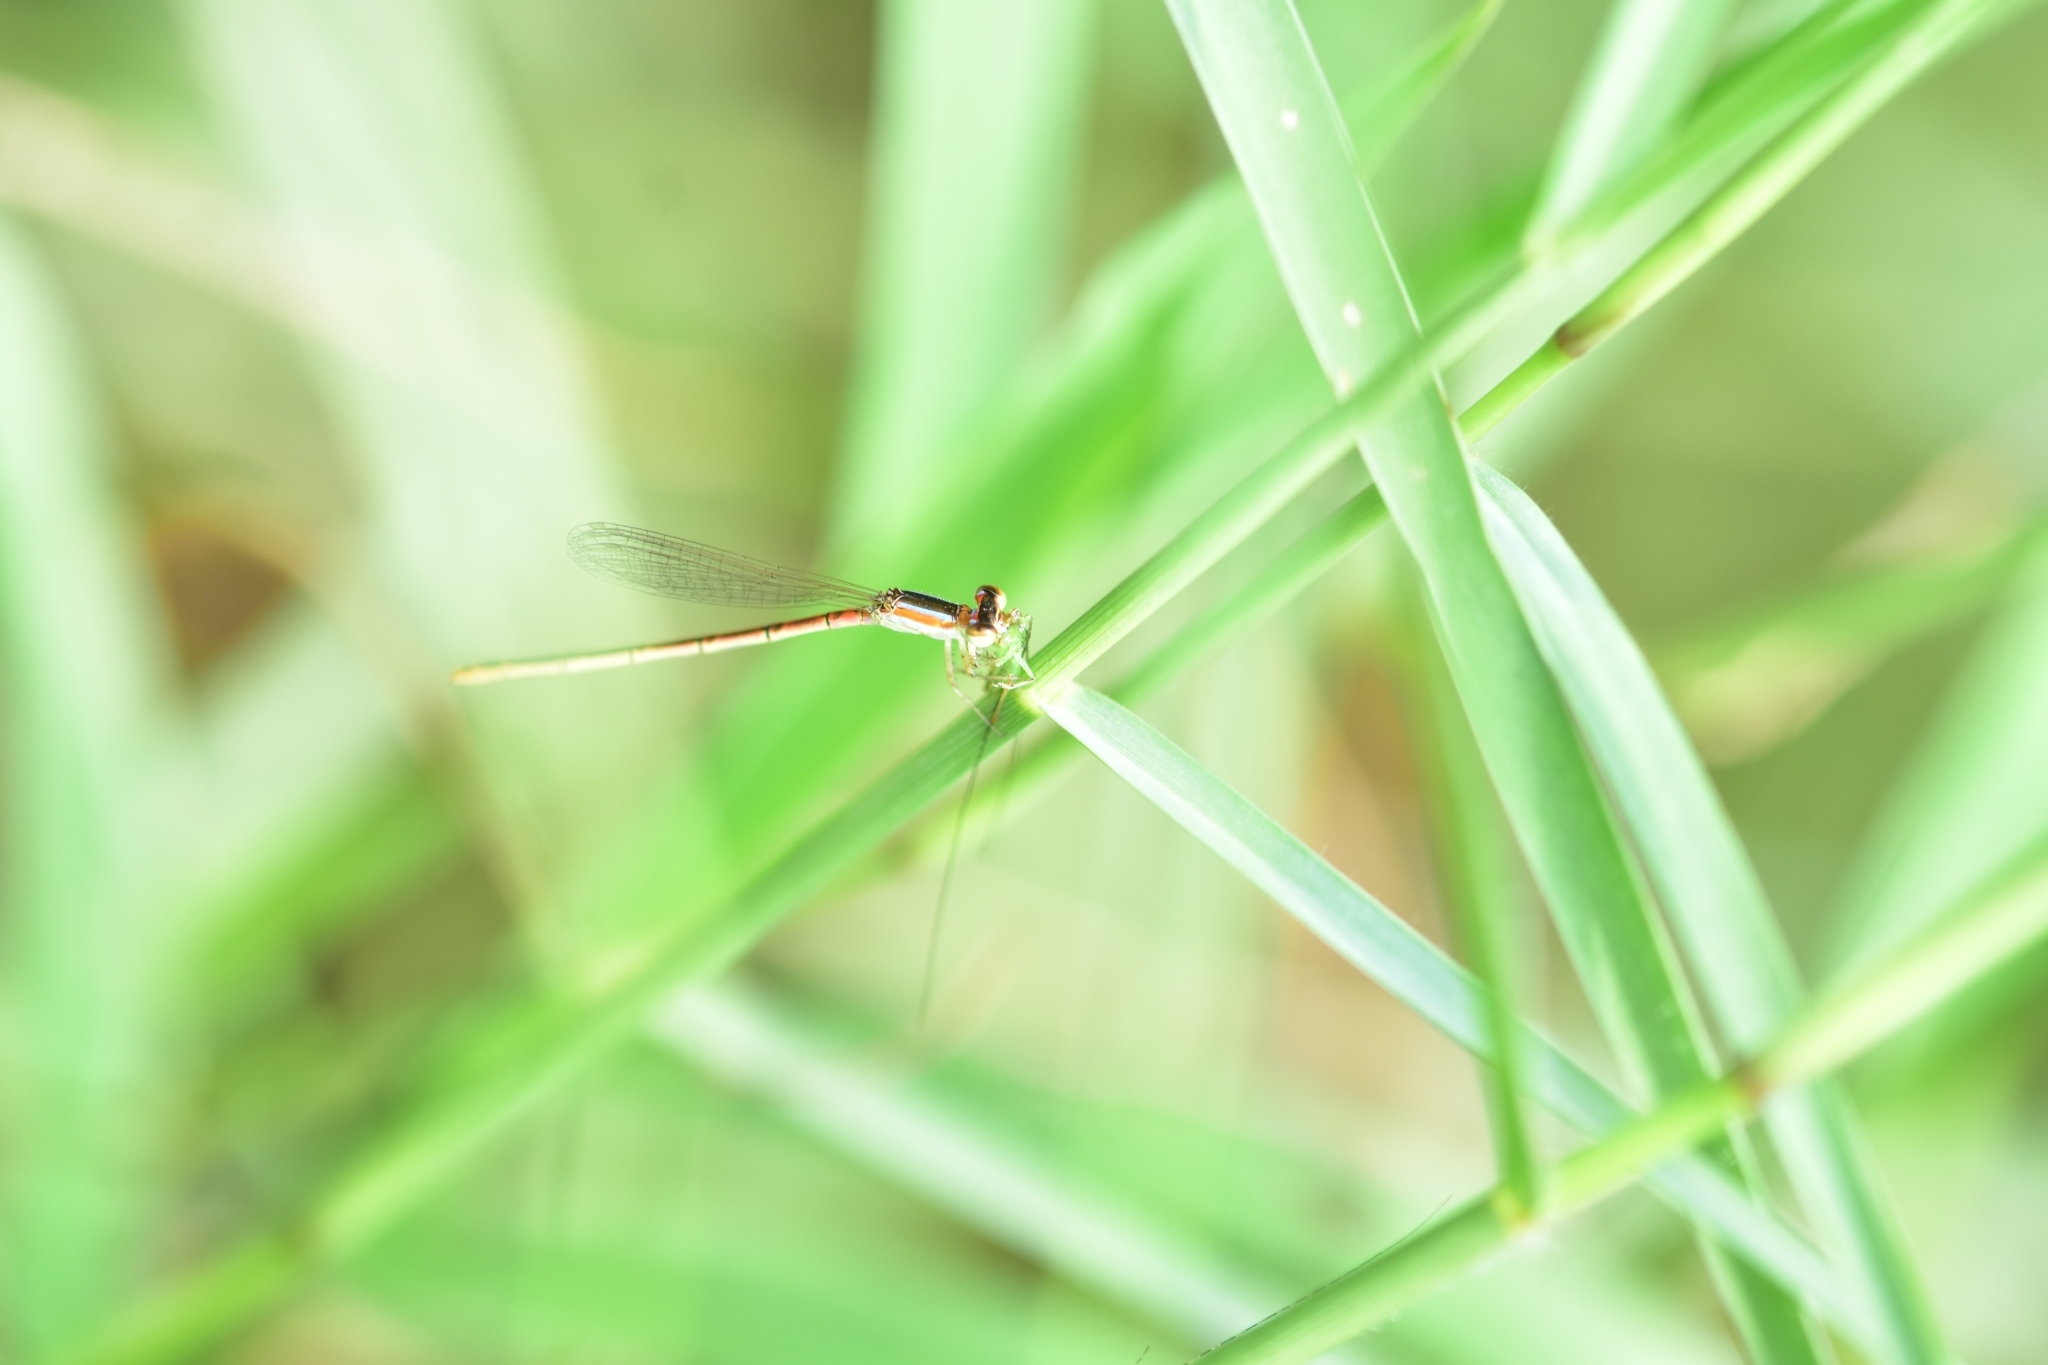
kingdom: Animalia
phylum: Arthropoda
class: Insecta
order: Odonata
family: Coenagrionidae
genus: Agriocnemis
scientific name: Agriocnemis pygmaea
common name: Pygmy wisp
